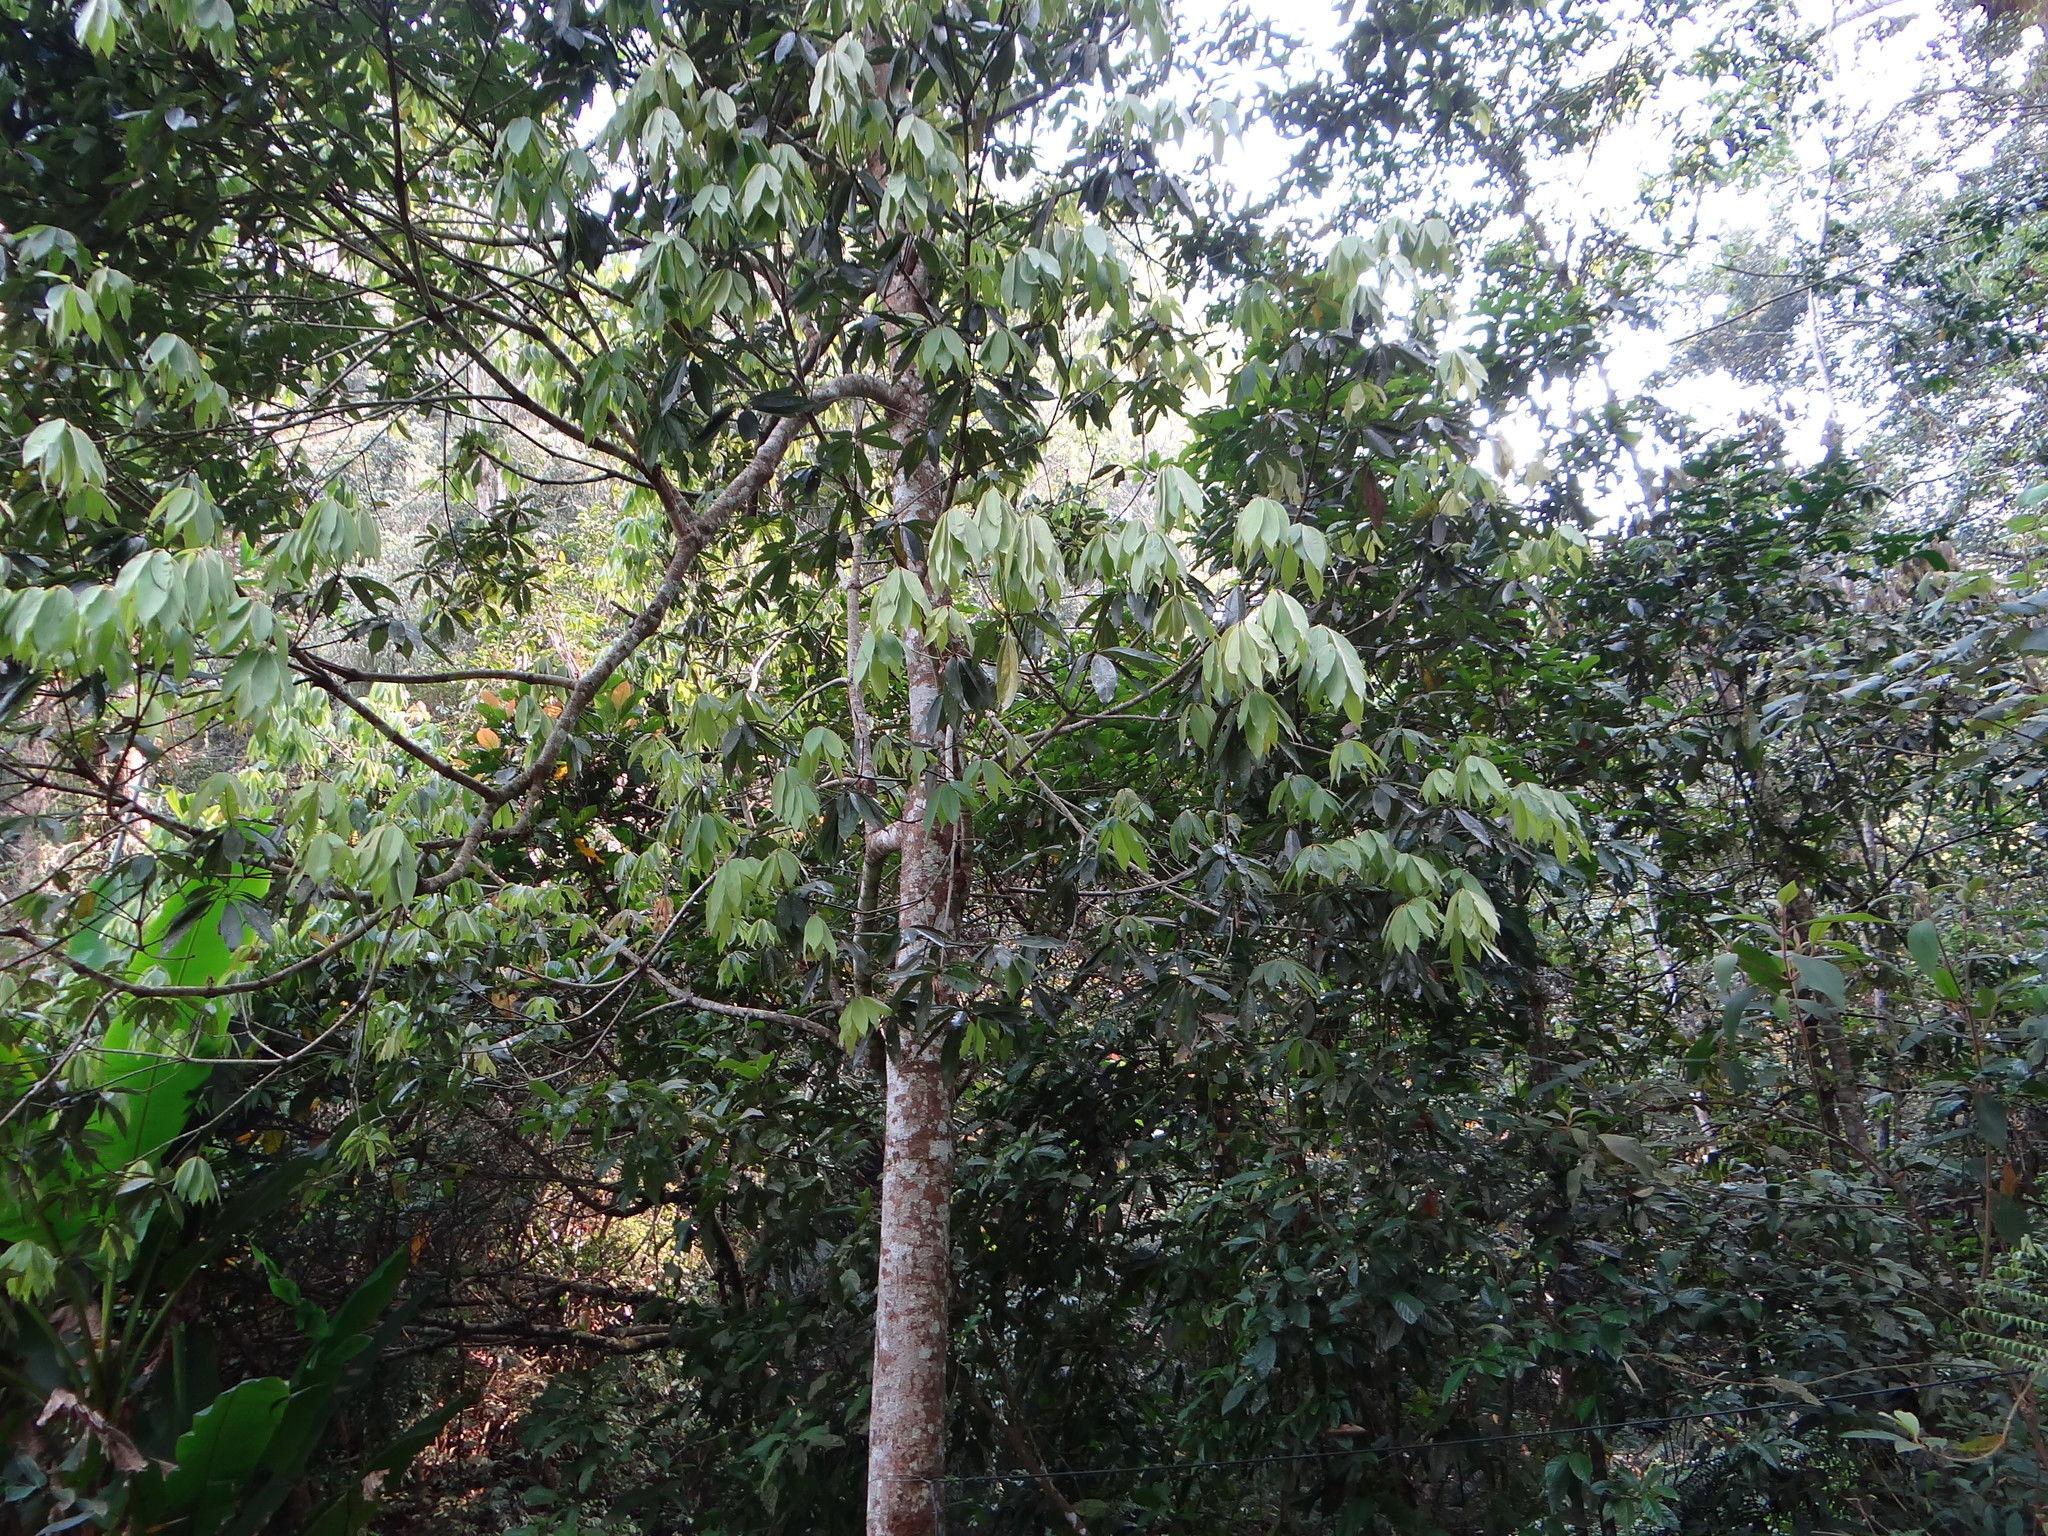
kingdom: Plantae
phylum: Tracheophyta
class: Magnoliopsida
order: Laurales
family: Lauraceae
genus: Neolitsea
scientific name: Neolitsea konishii
